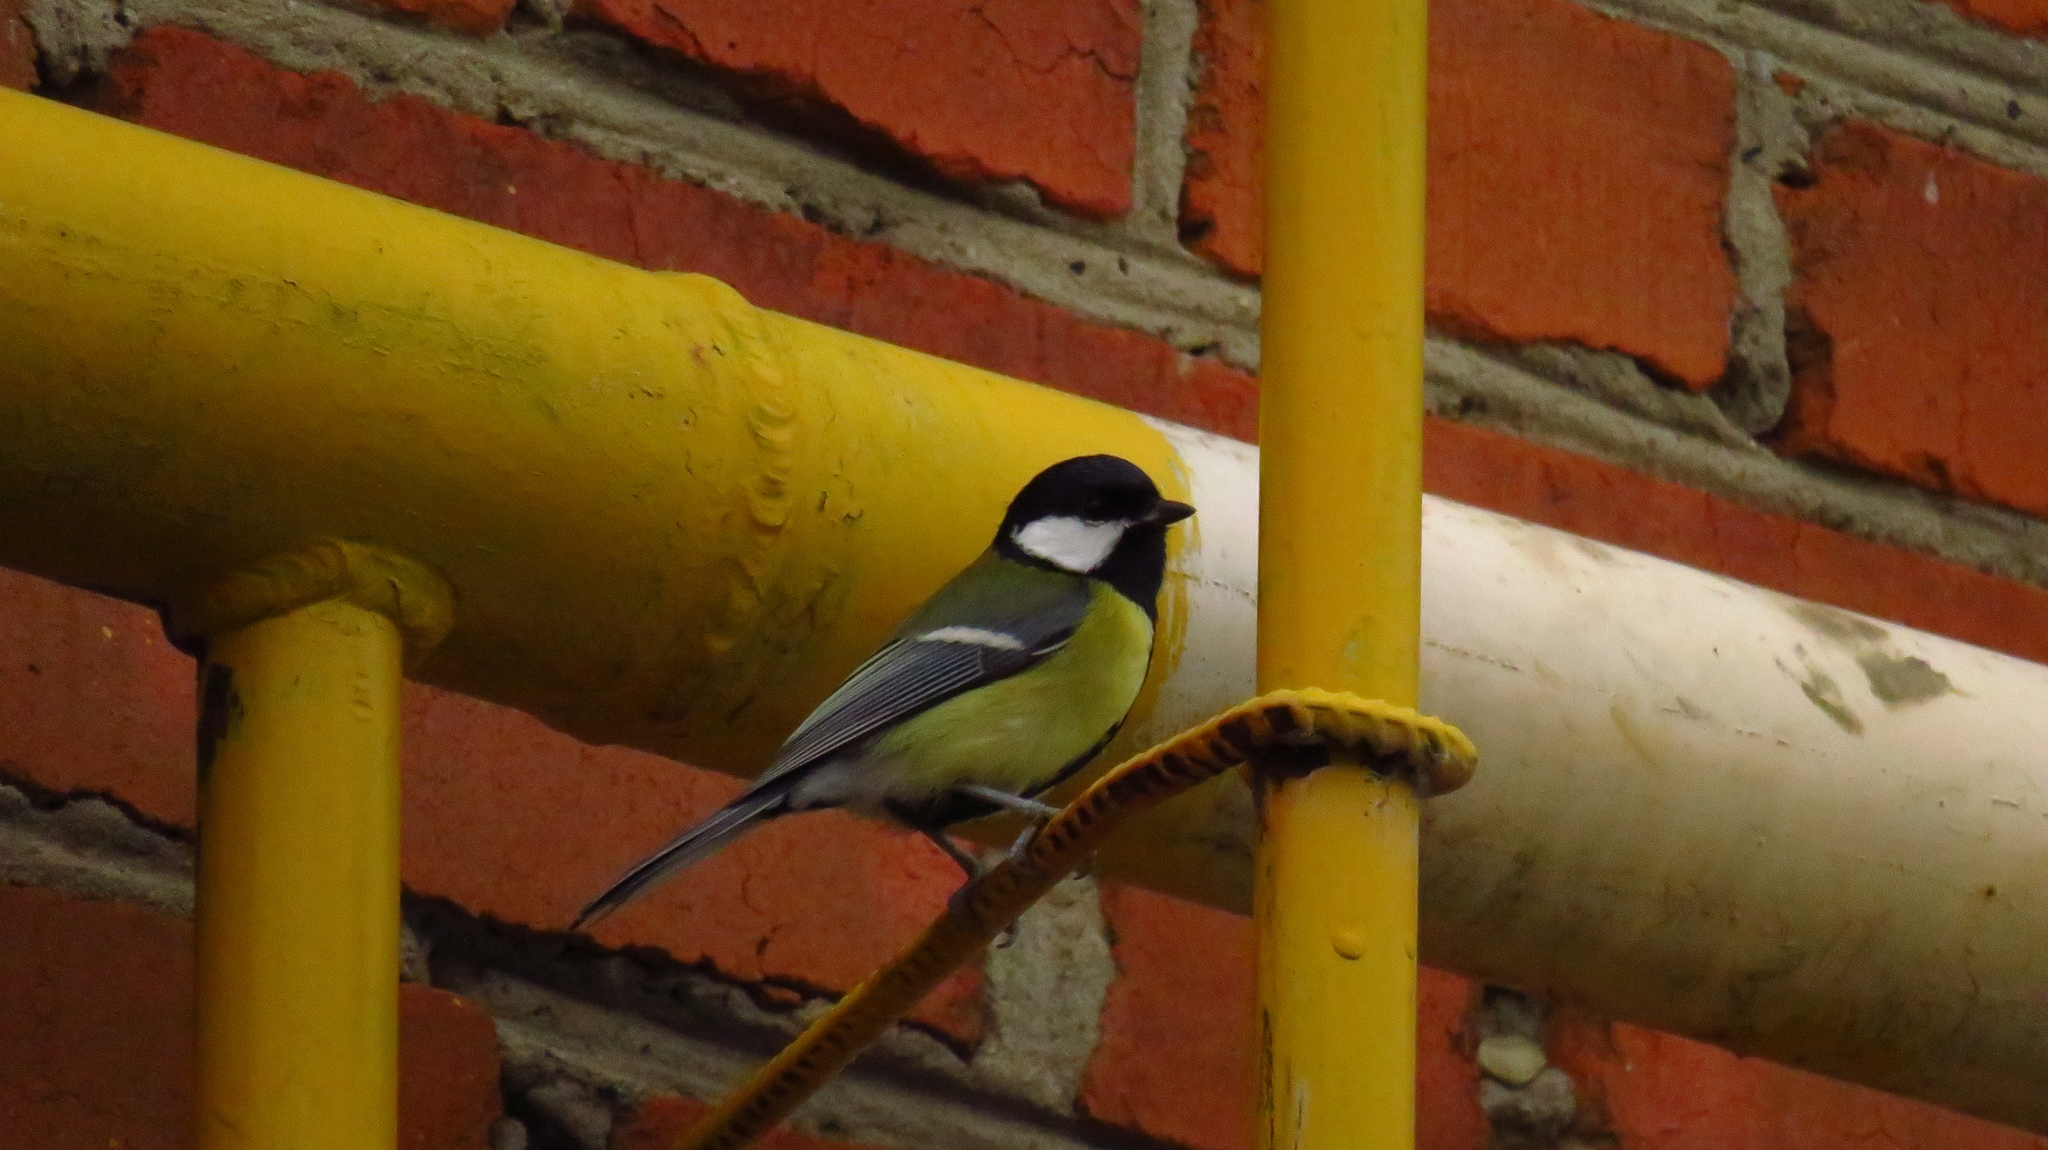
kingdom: Animalia
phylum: Chordata
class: Aves
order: Passeriformes
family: Paridae
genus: Parus
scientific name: Parus major
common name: Great tit
